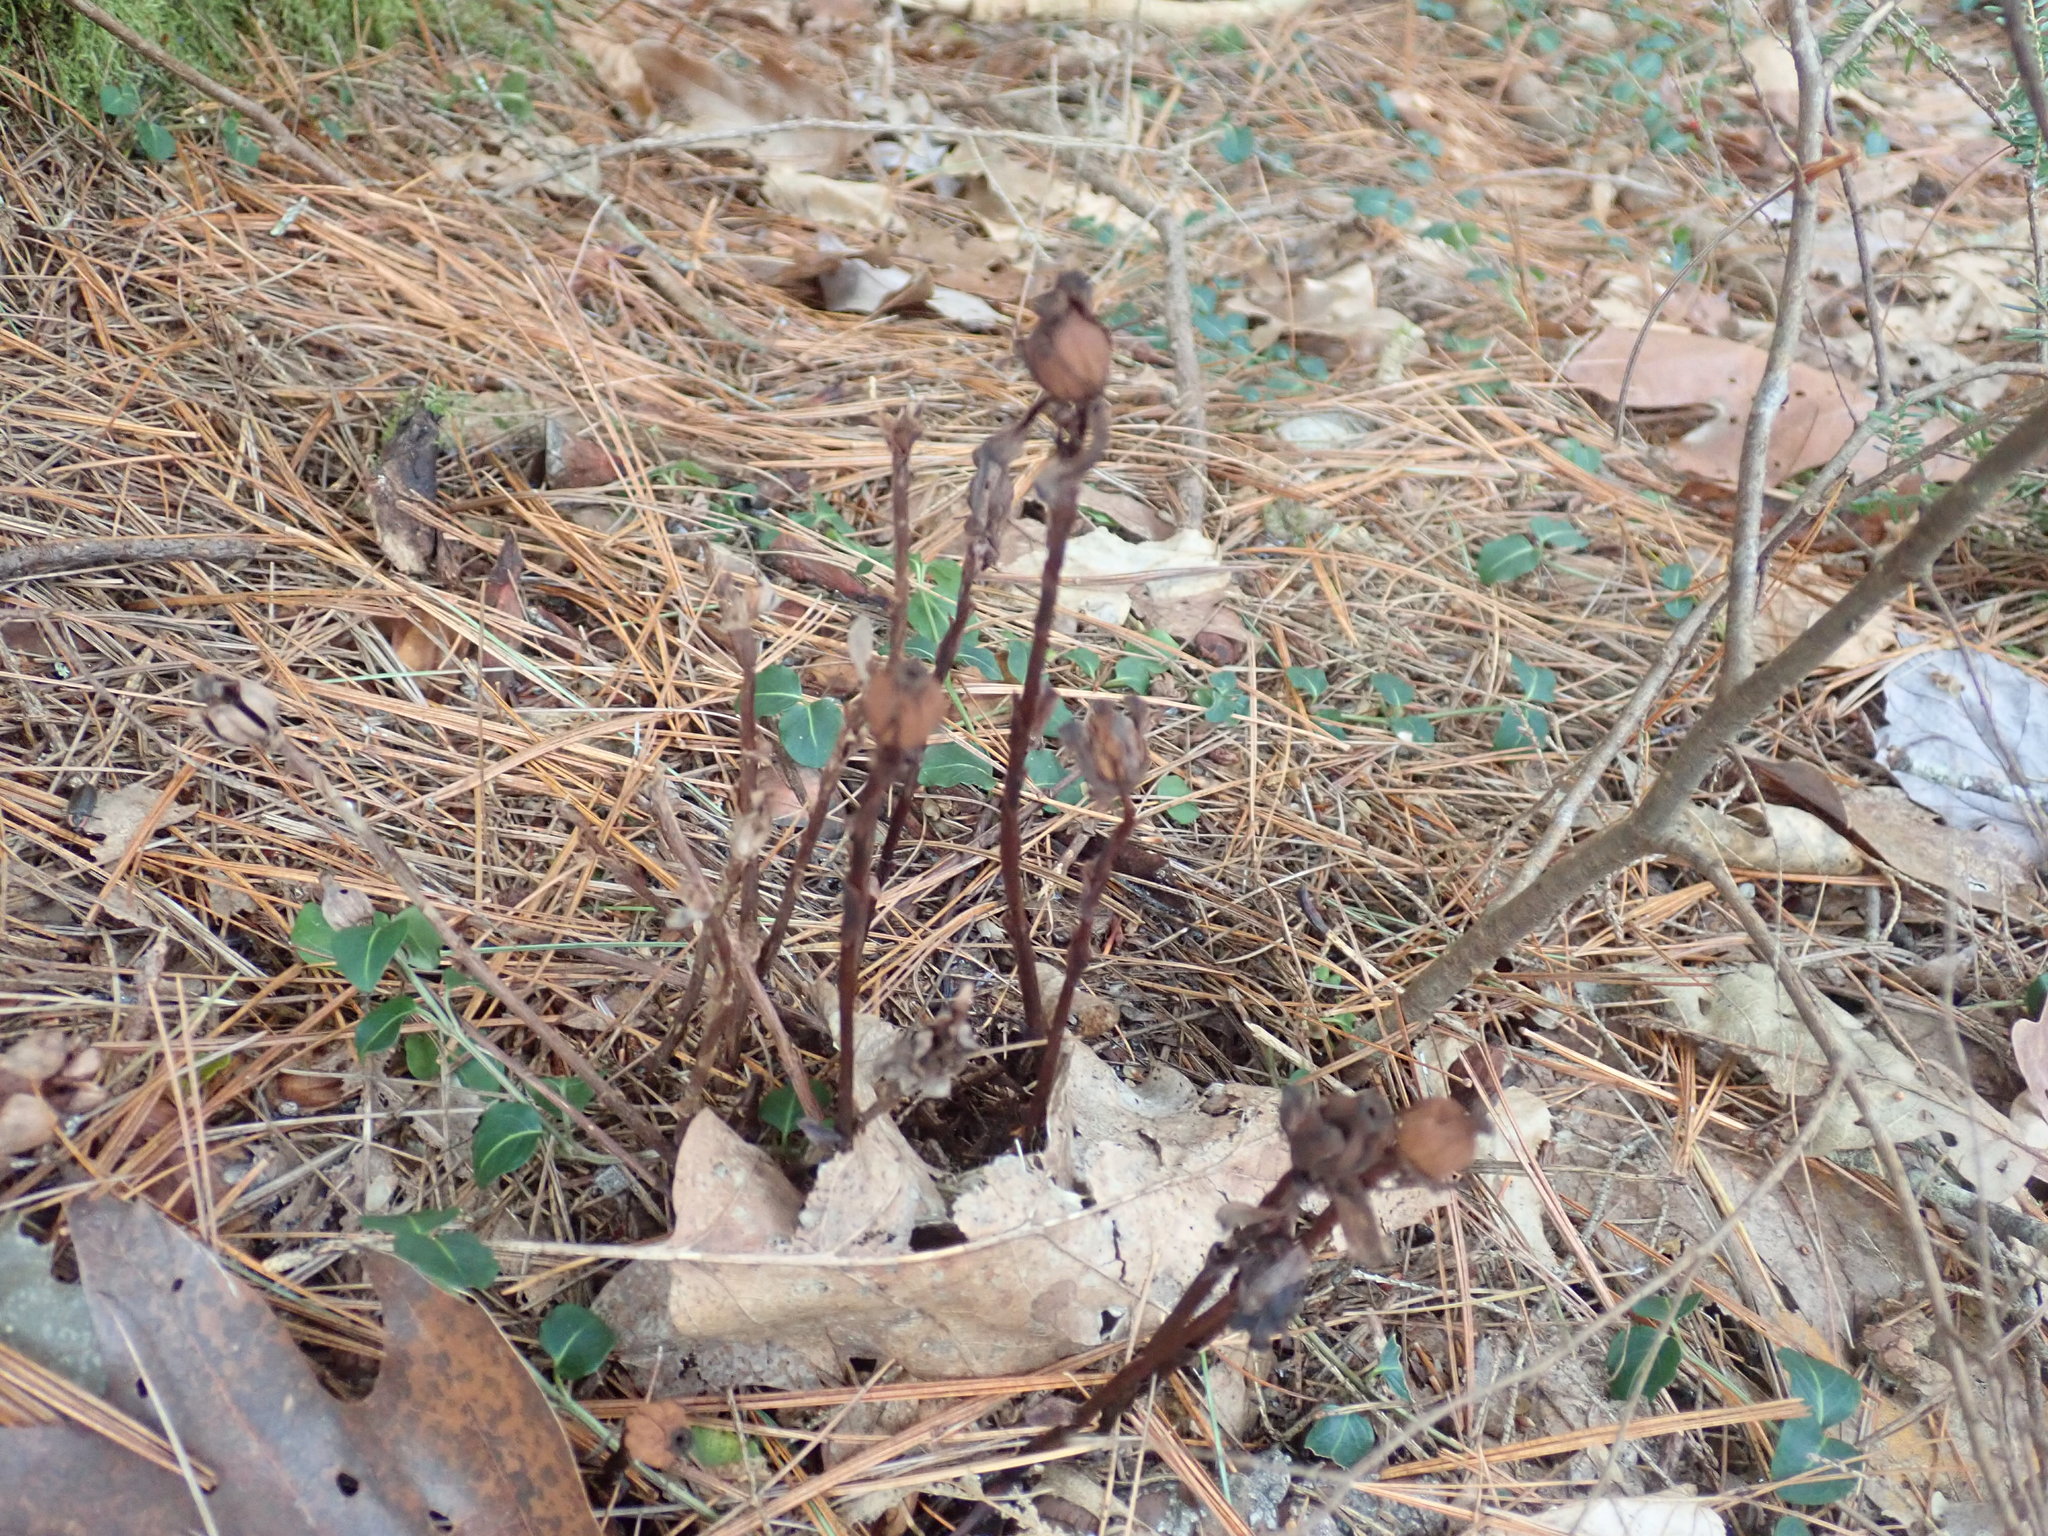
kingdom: Plantae
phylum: Tracheophyta
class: Magnoliopsida
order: Ericales
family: Ericaceae
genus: Monotropa
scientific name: Monotropa uniflora
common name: Convulsion root
